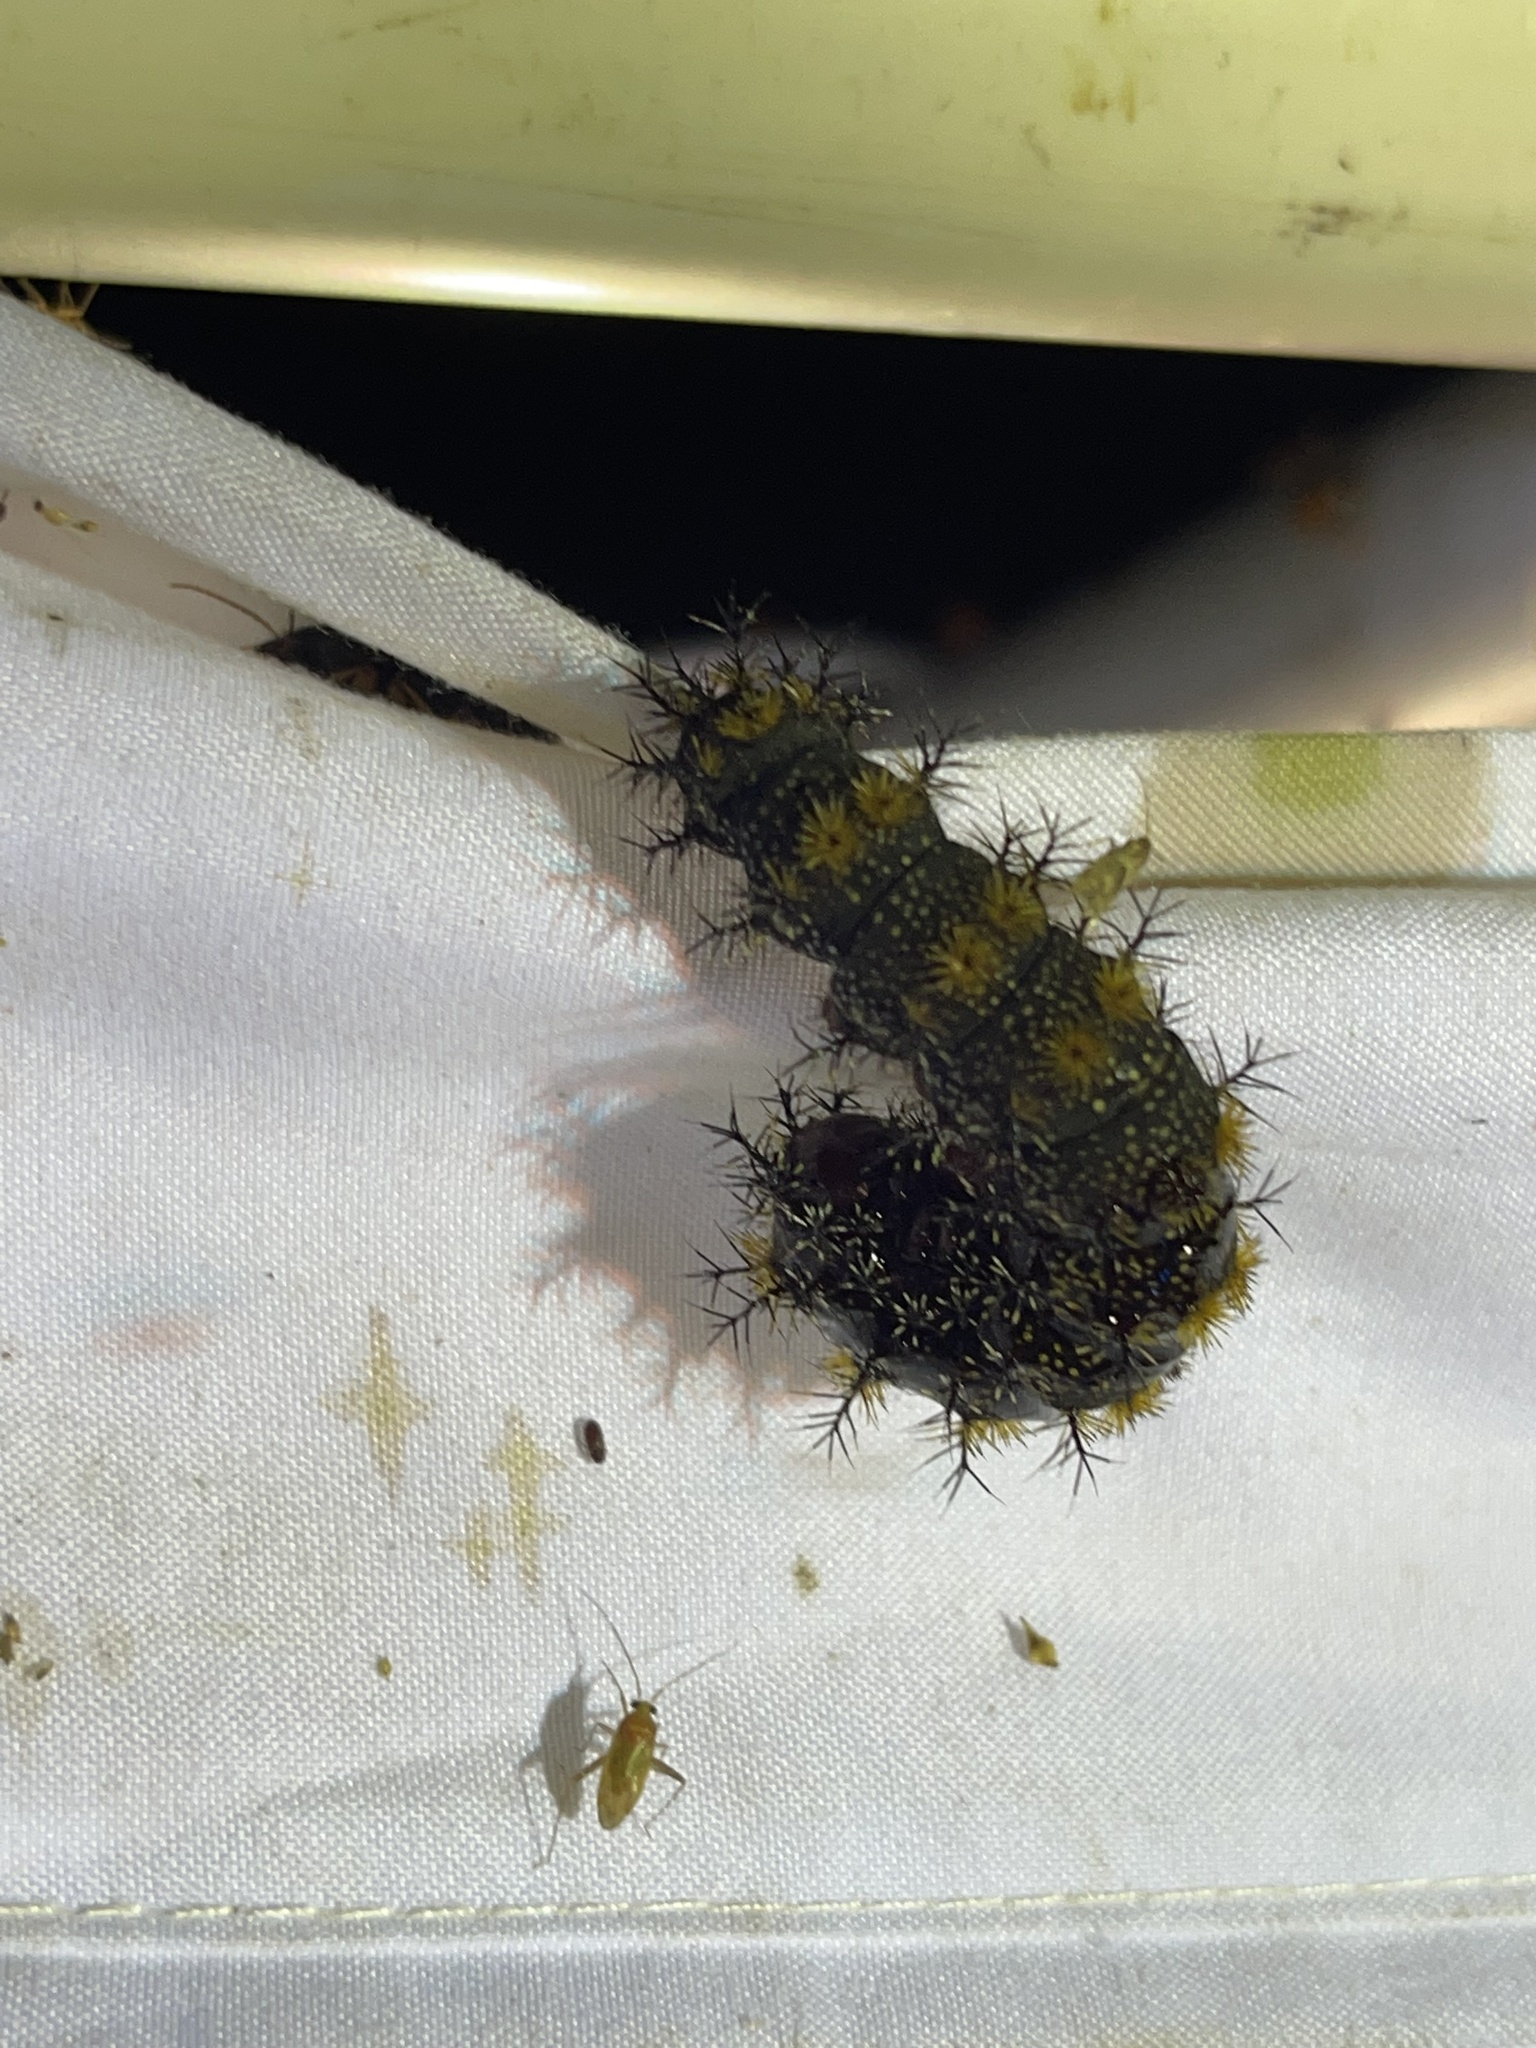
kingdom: Animalia
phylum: Arthropoda
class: Insecta
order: Lepidoptera
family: Saturniidae
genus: Hemileuca
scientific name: Hemileuca maia
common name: Eastern buckmoth
